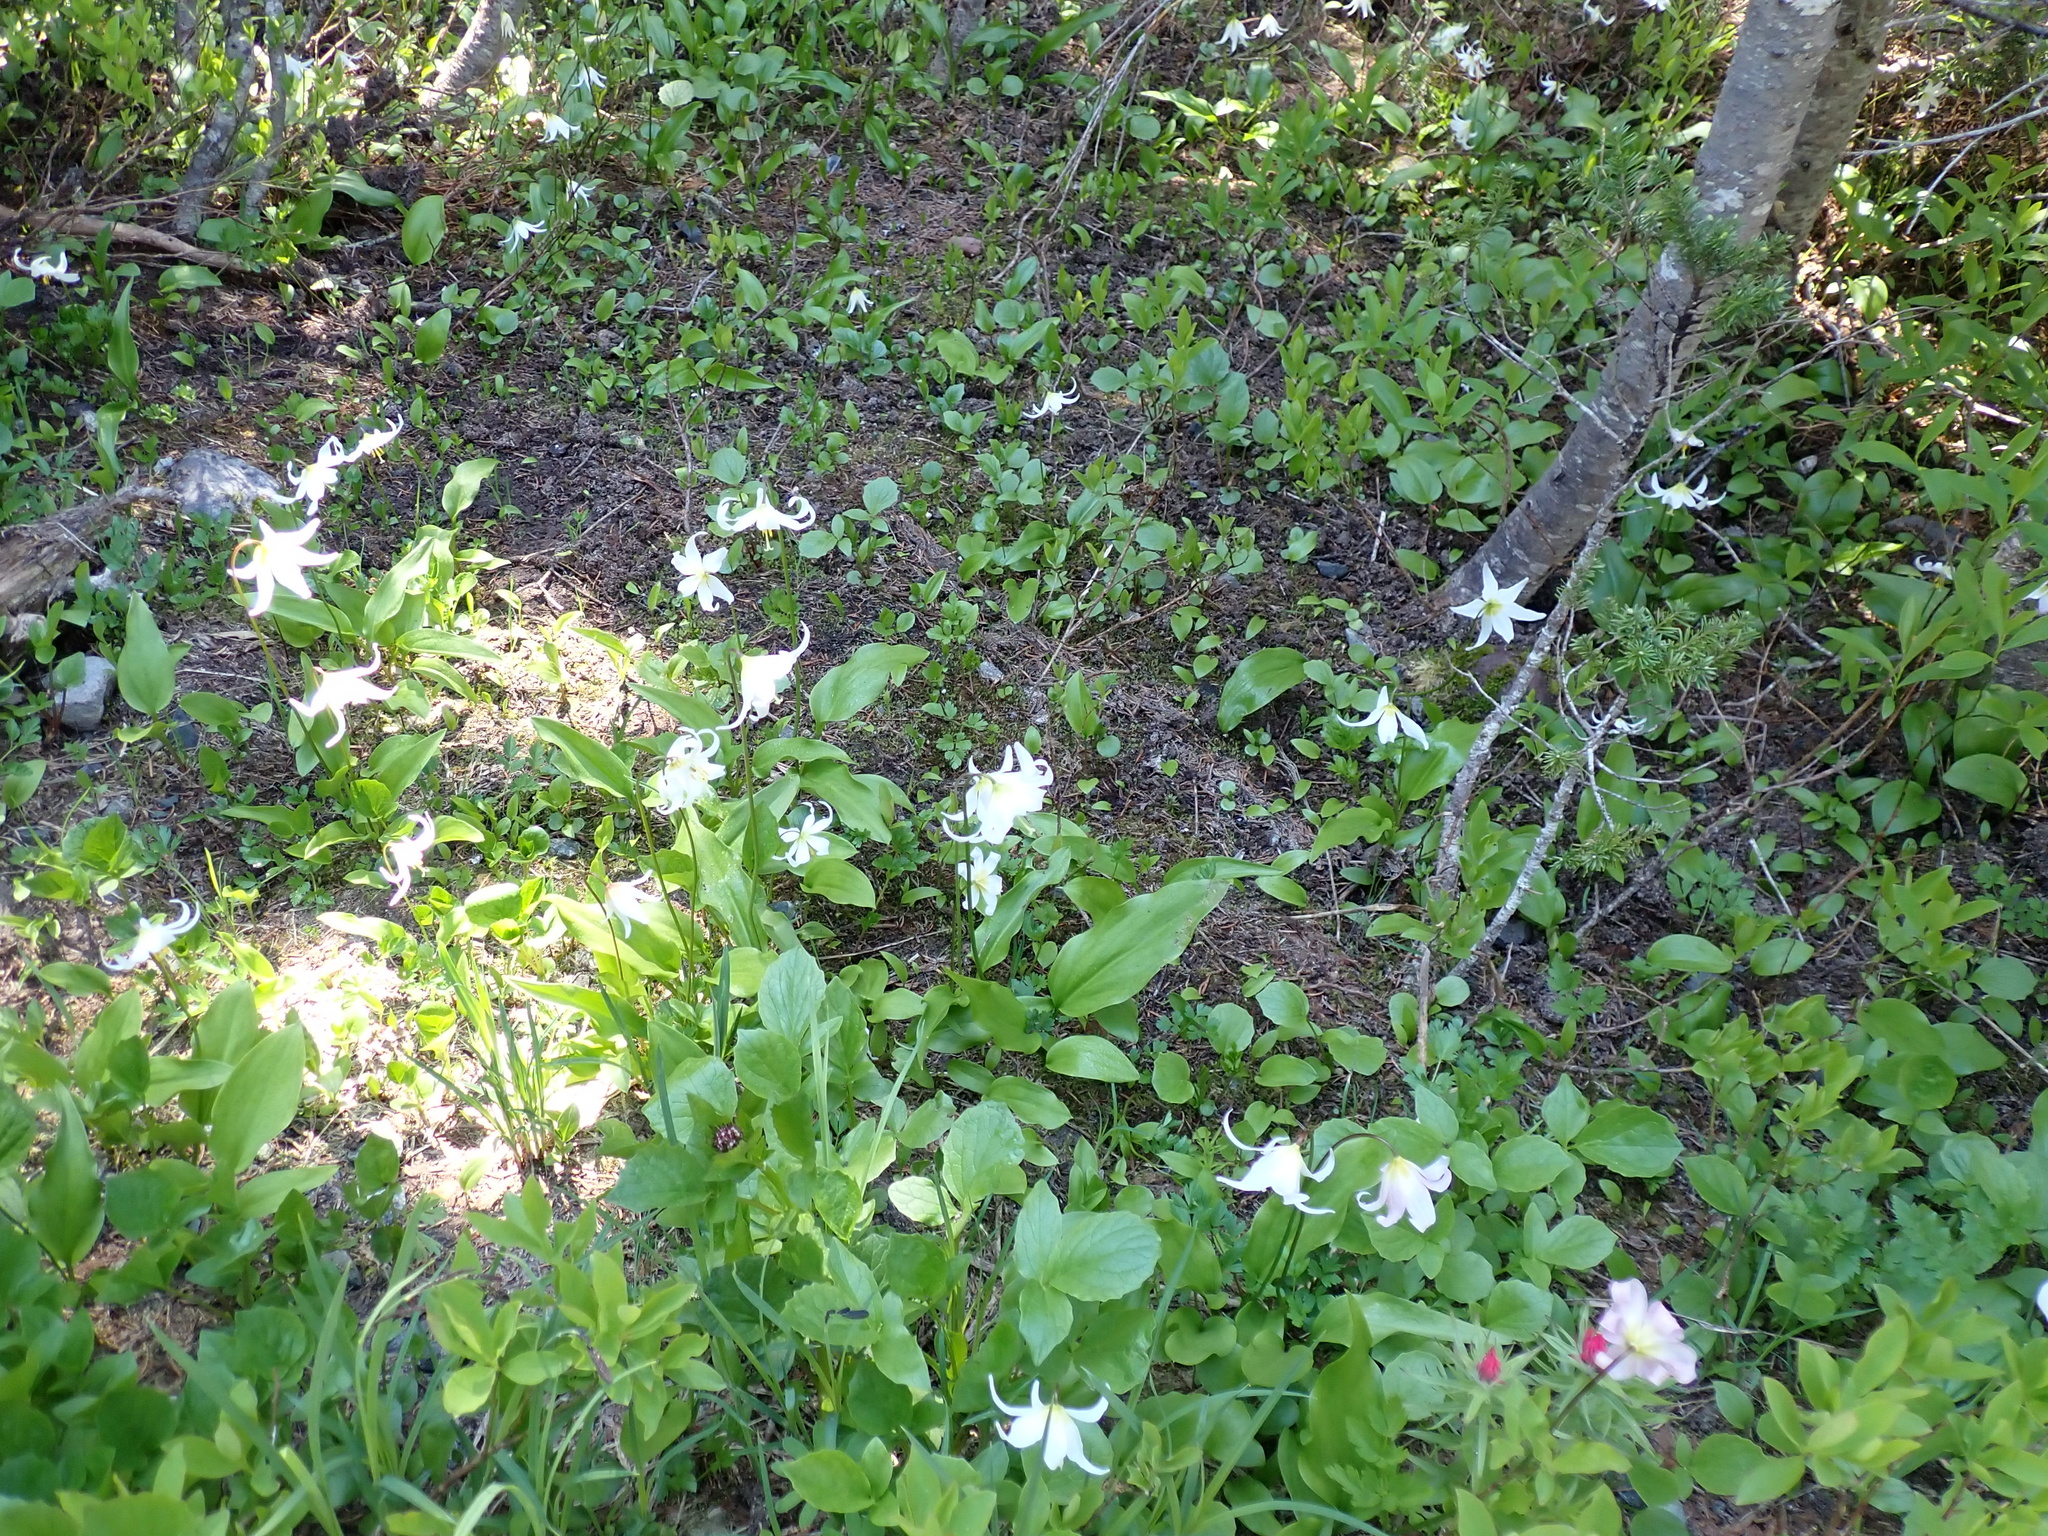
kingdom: Plantae
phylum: Tracheophyta
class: Liliopsida
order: Liliales
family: Liliaceae
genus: Erythronium
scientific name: Erythronium montanum
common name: Avalanche lily
